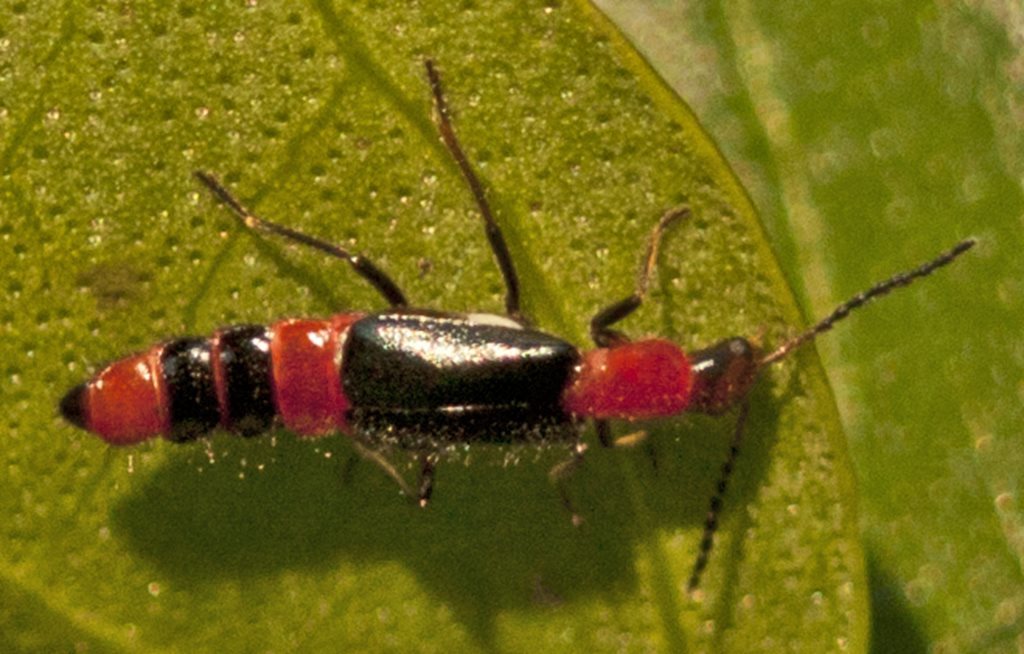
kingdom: Animalia
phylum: Arthropoda
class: Insecta
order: Coleoptera
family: Melyridae
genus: Carphurus
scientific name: Carphurus
